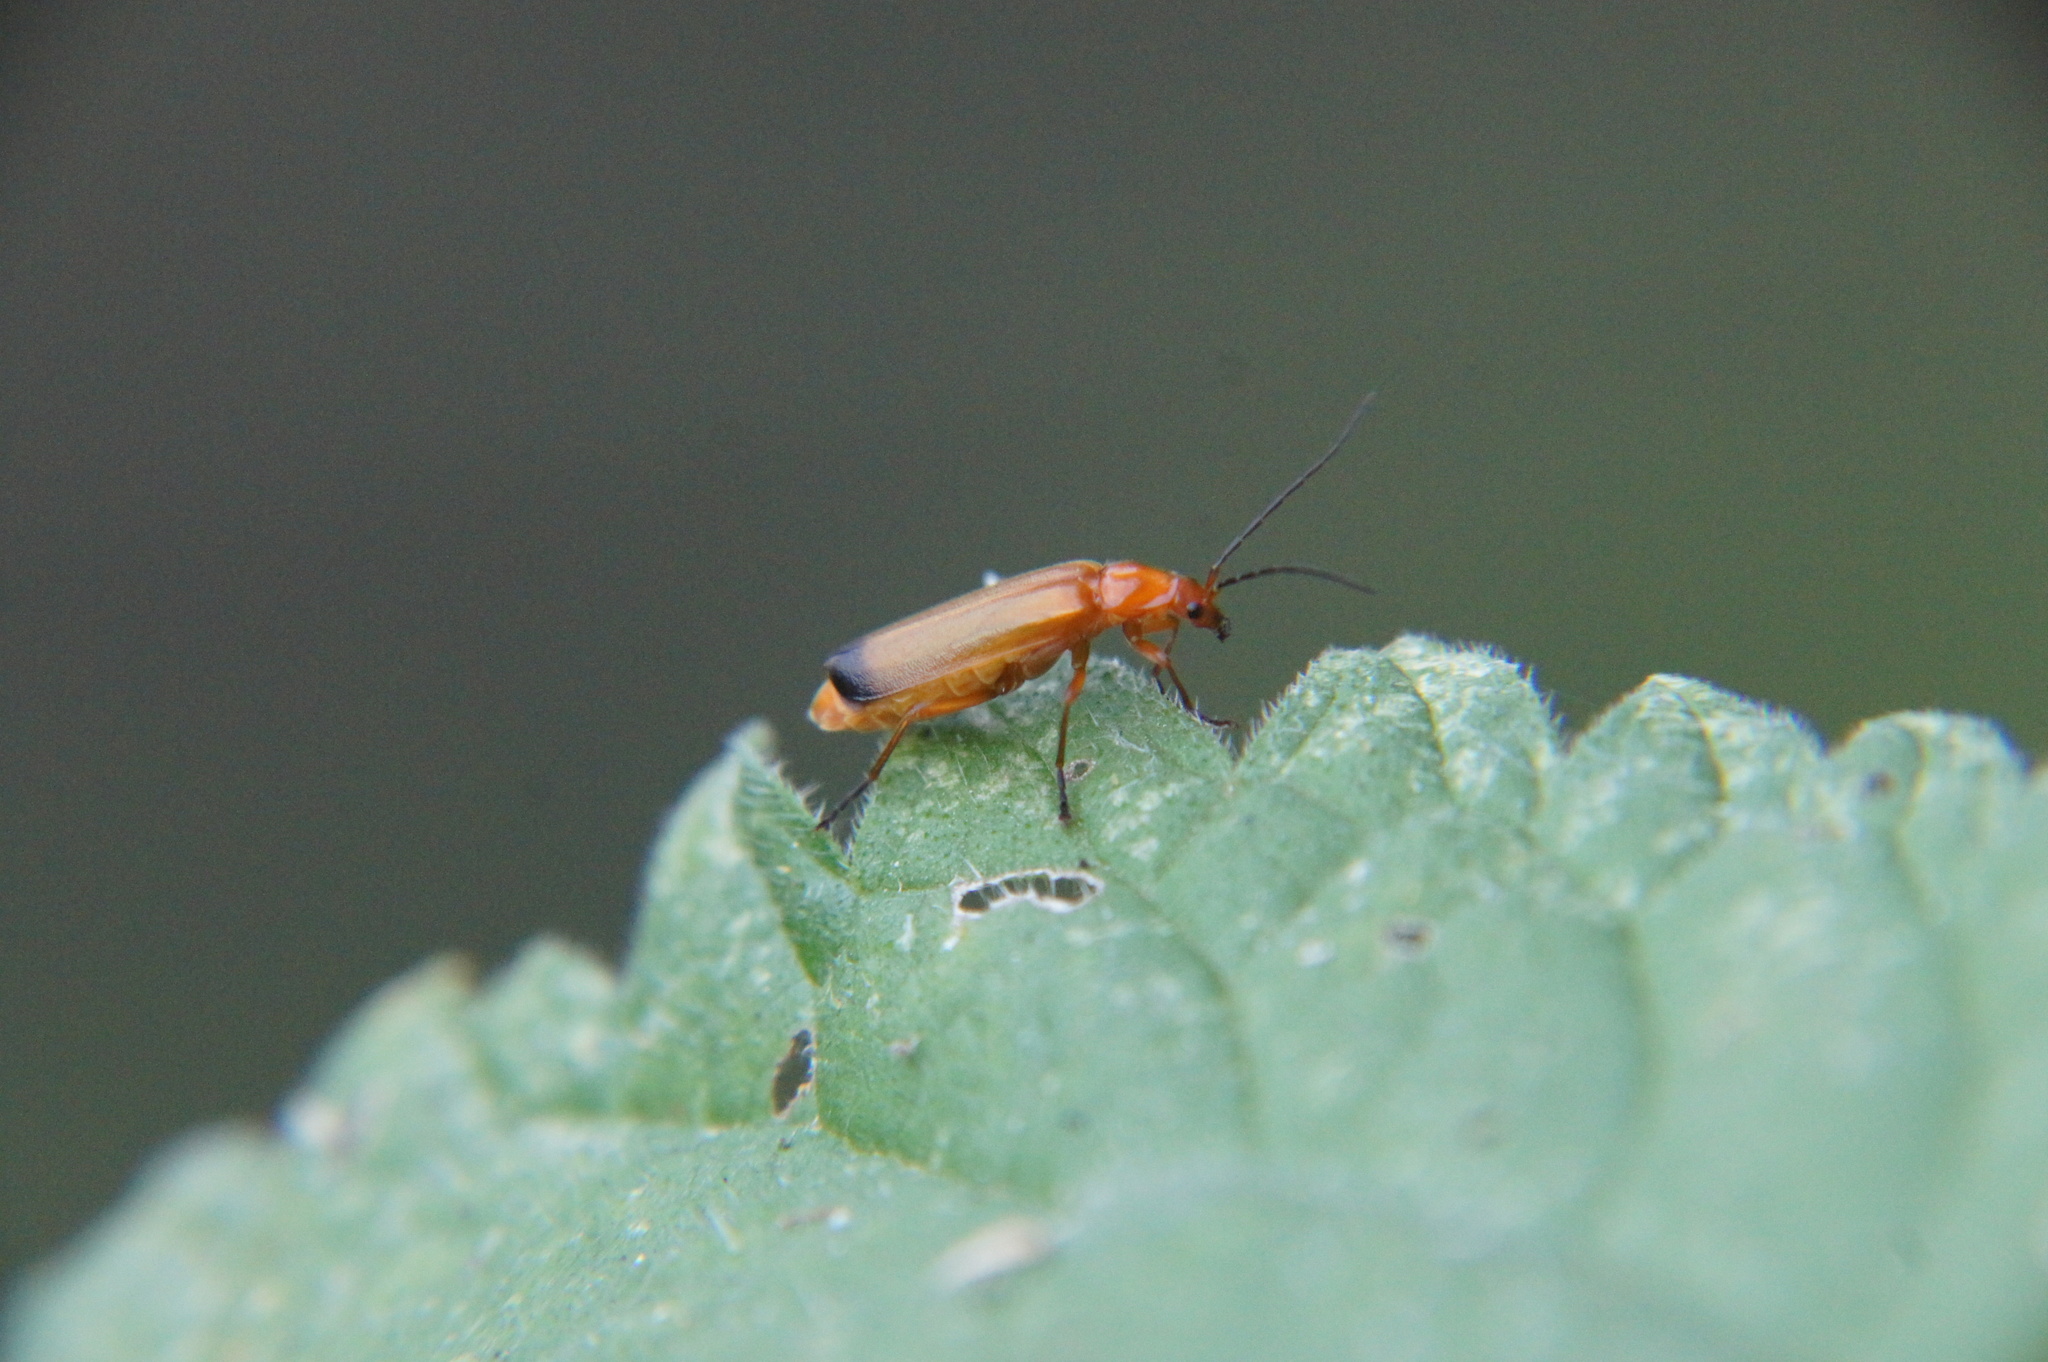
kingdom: Animalia
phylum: Arthropoda
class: Insecta
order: Coleoptera
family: Cantharidae
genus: Rhagonycha
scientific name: Rhagonycha fulva
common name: Common red soldier beetle
